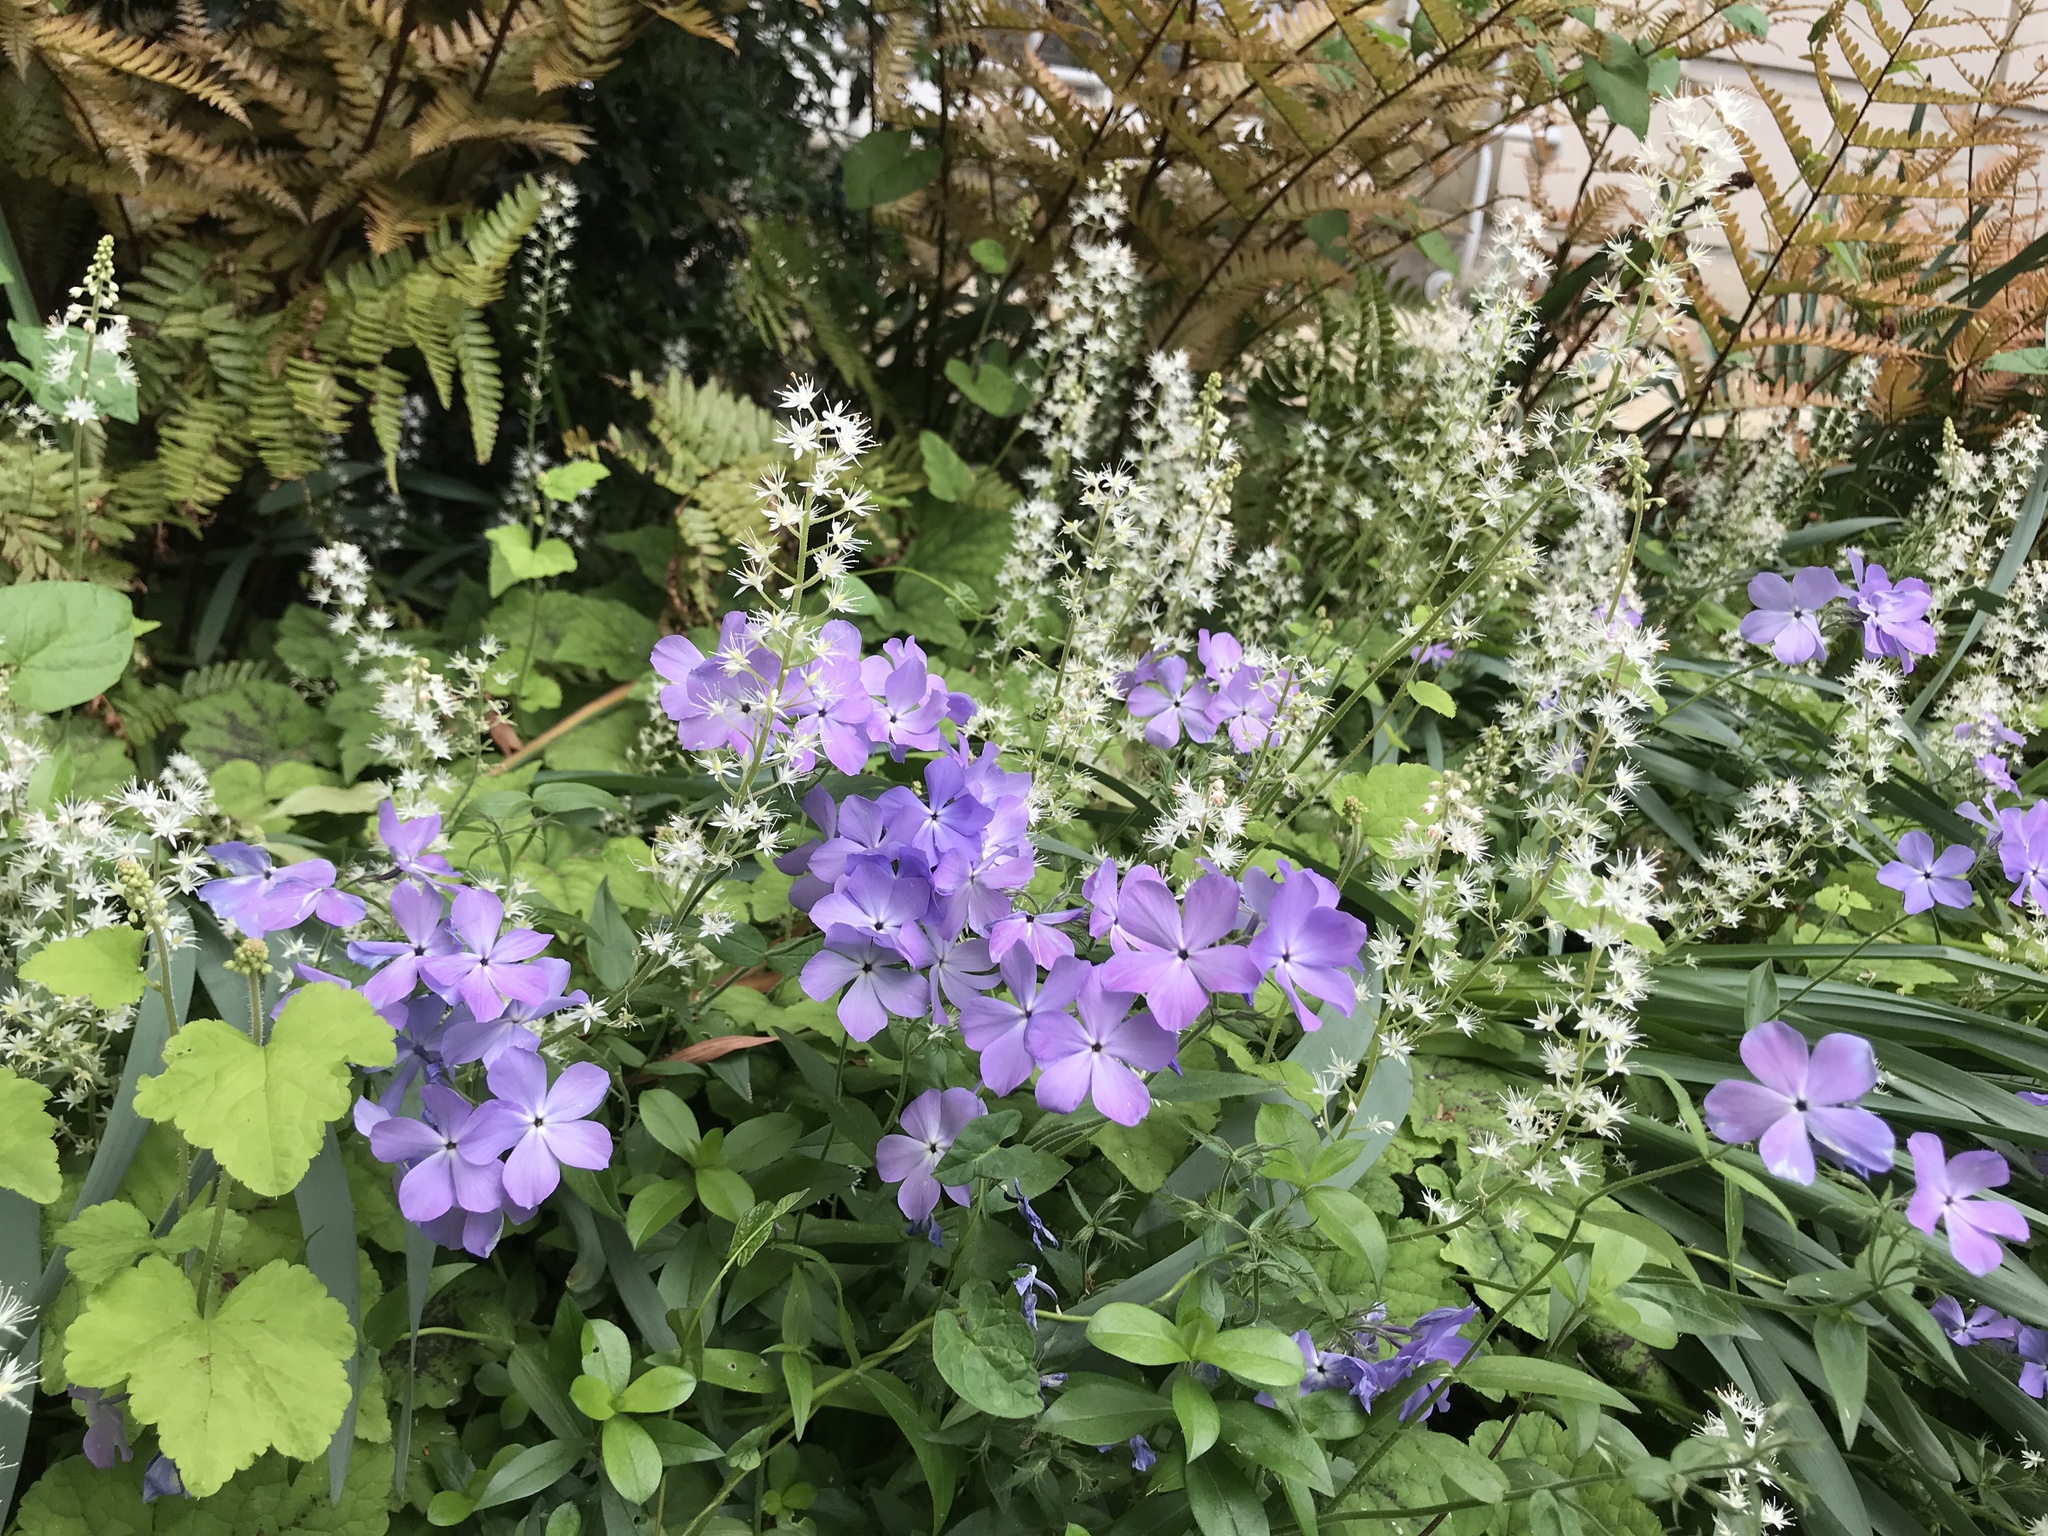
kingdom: Plantae
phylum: Tracheophyta
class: Magnoliopsida
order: Ericales
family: Polemoniaceae
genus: Phlox
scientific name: Phlox divaricata
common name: Blue phlox
